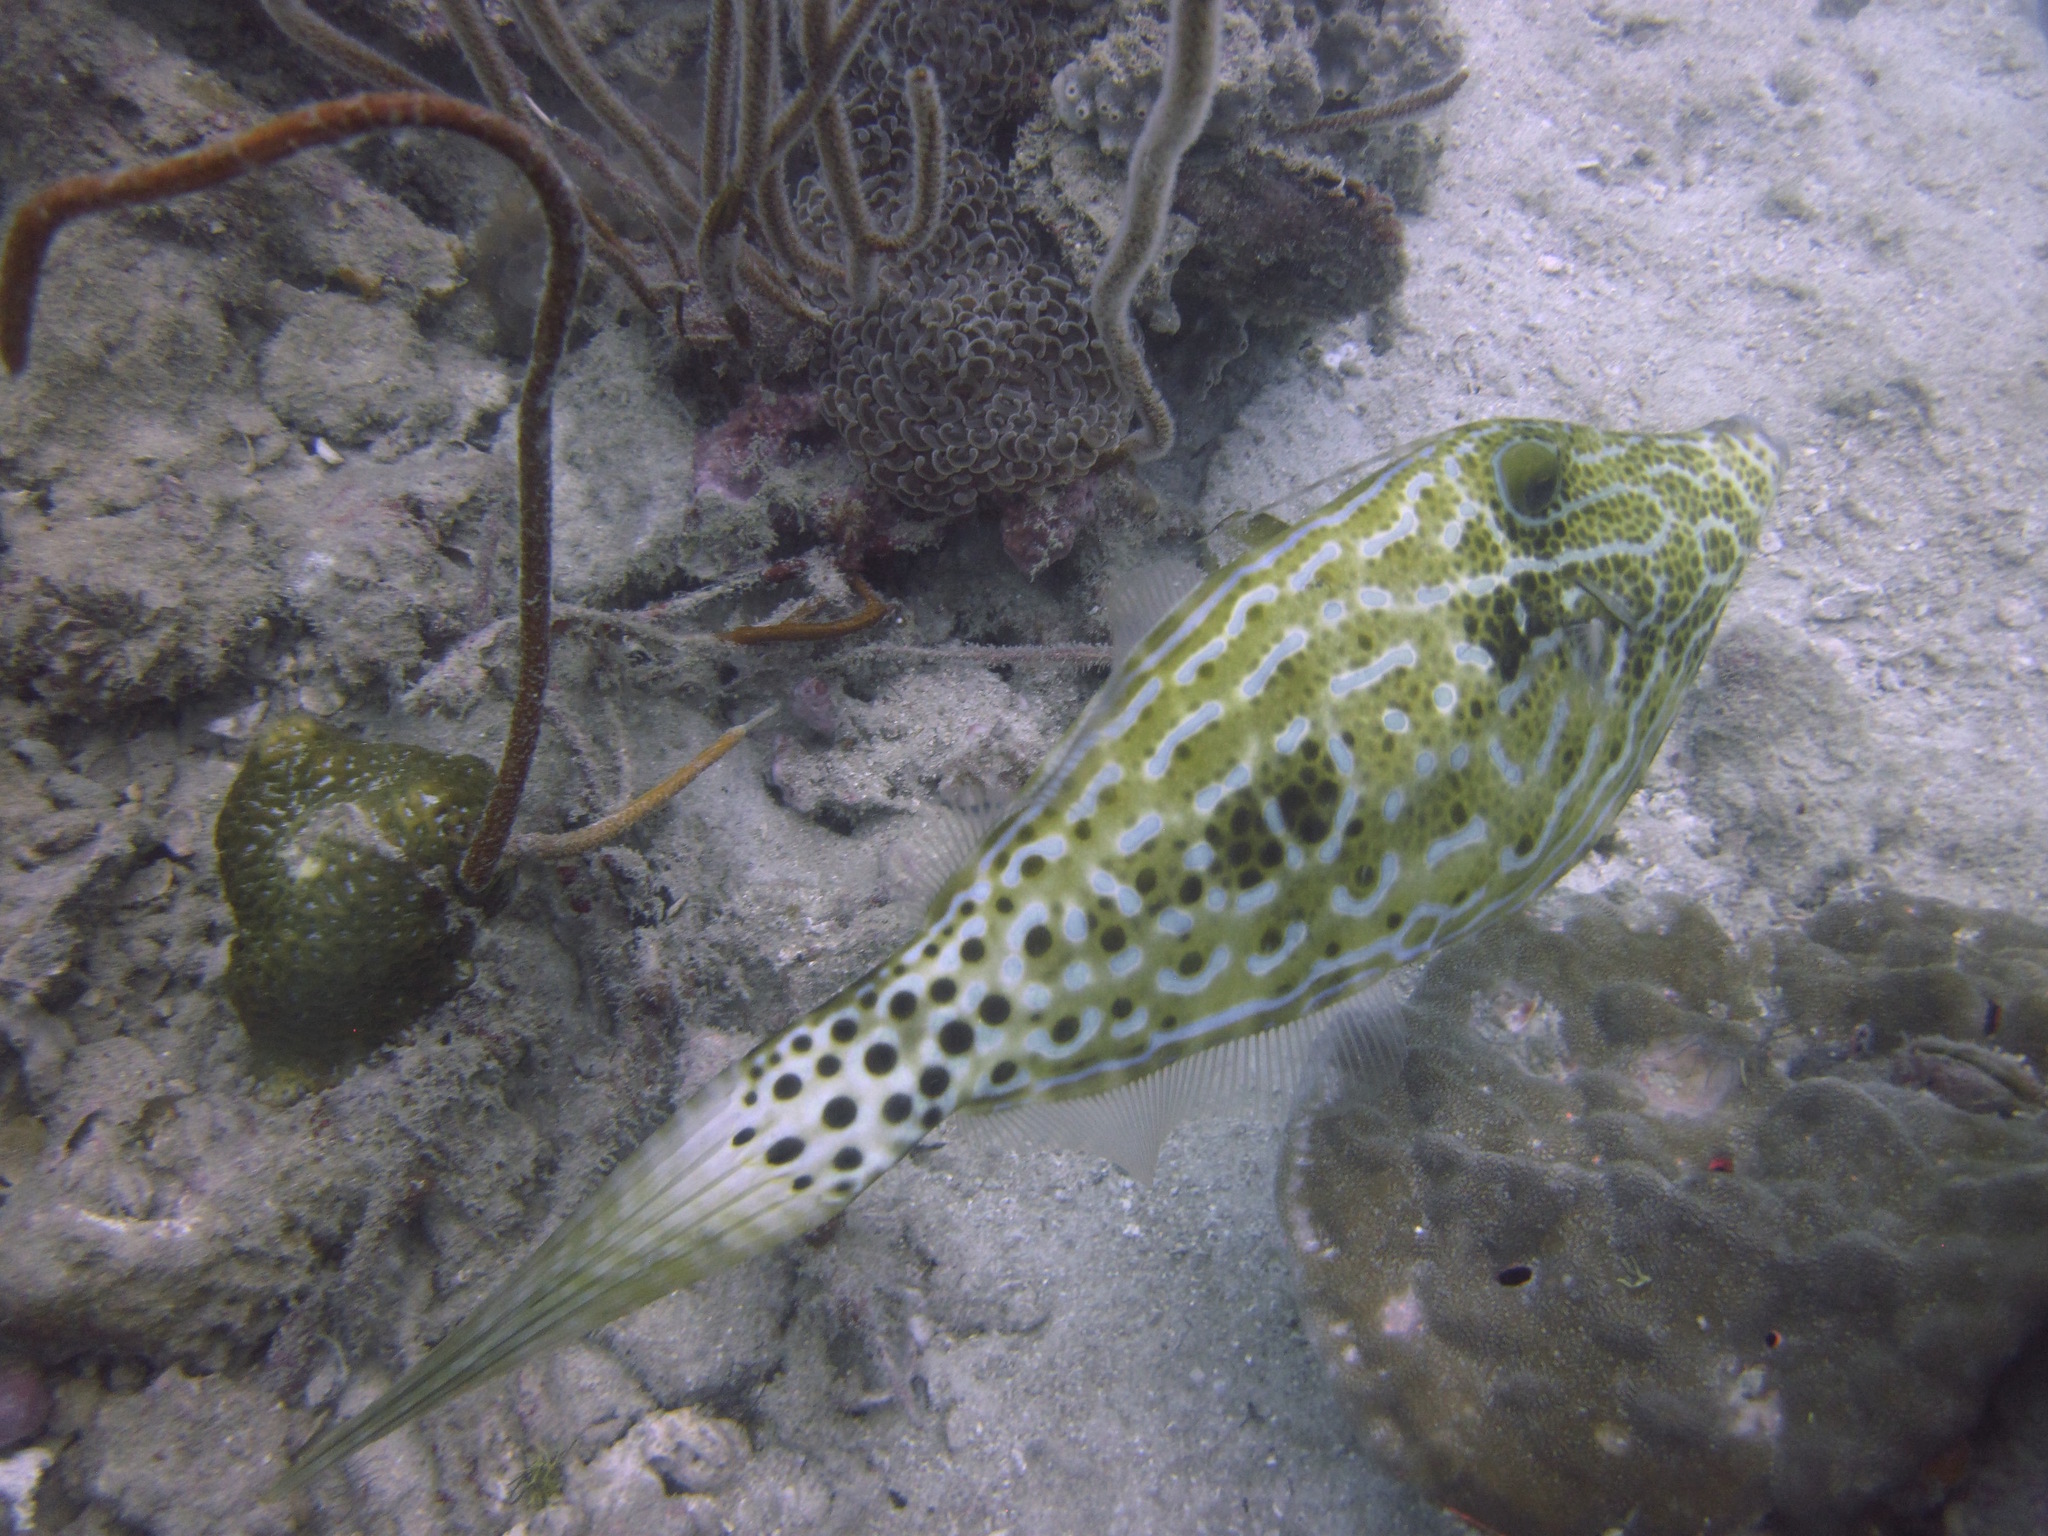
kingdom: Animalia
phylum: Chordata
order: Tetraodontiformes
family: Monacanthidae
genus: Aluterus
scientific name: Aluterus scriptus
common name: Scribbled leatherjacket filefish
